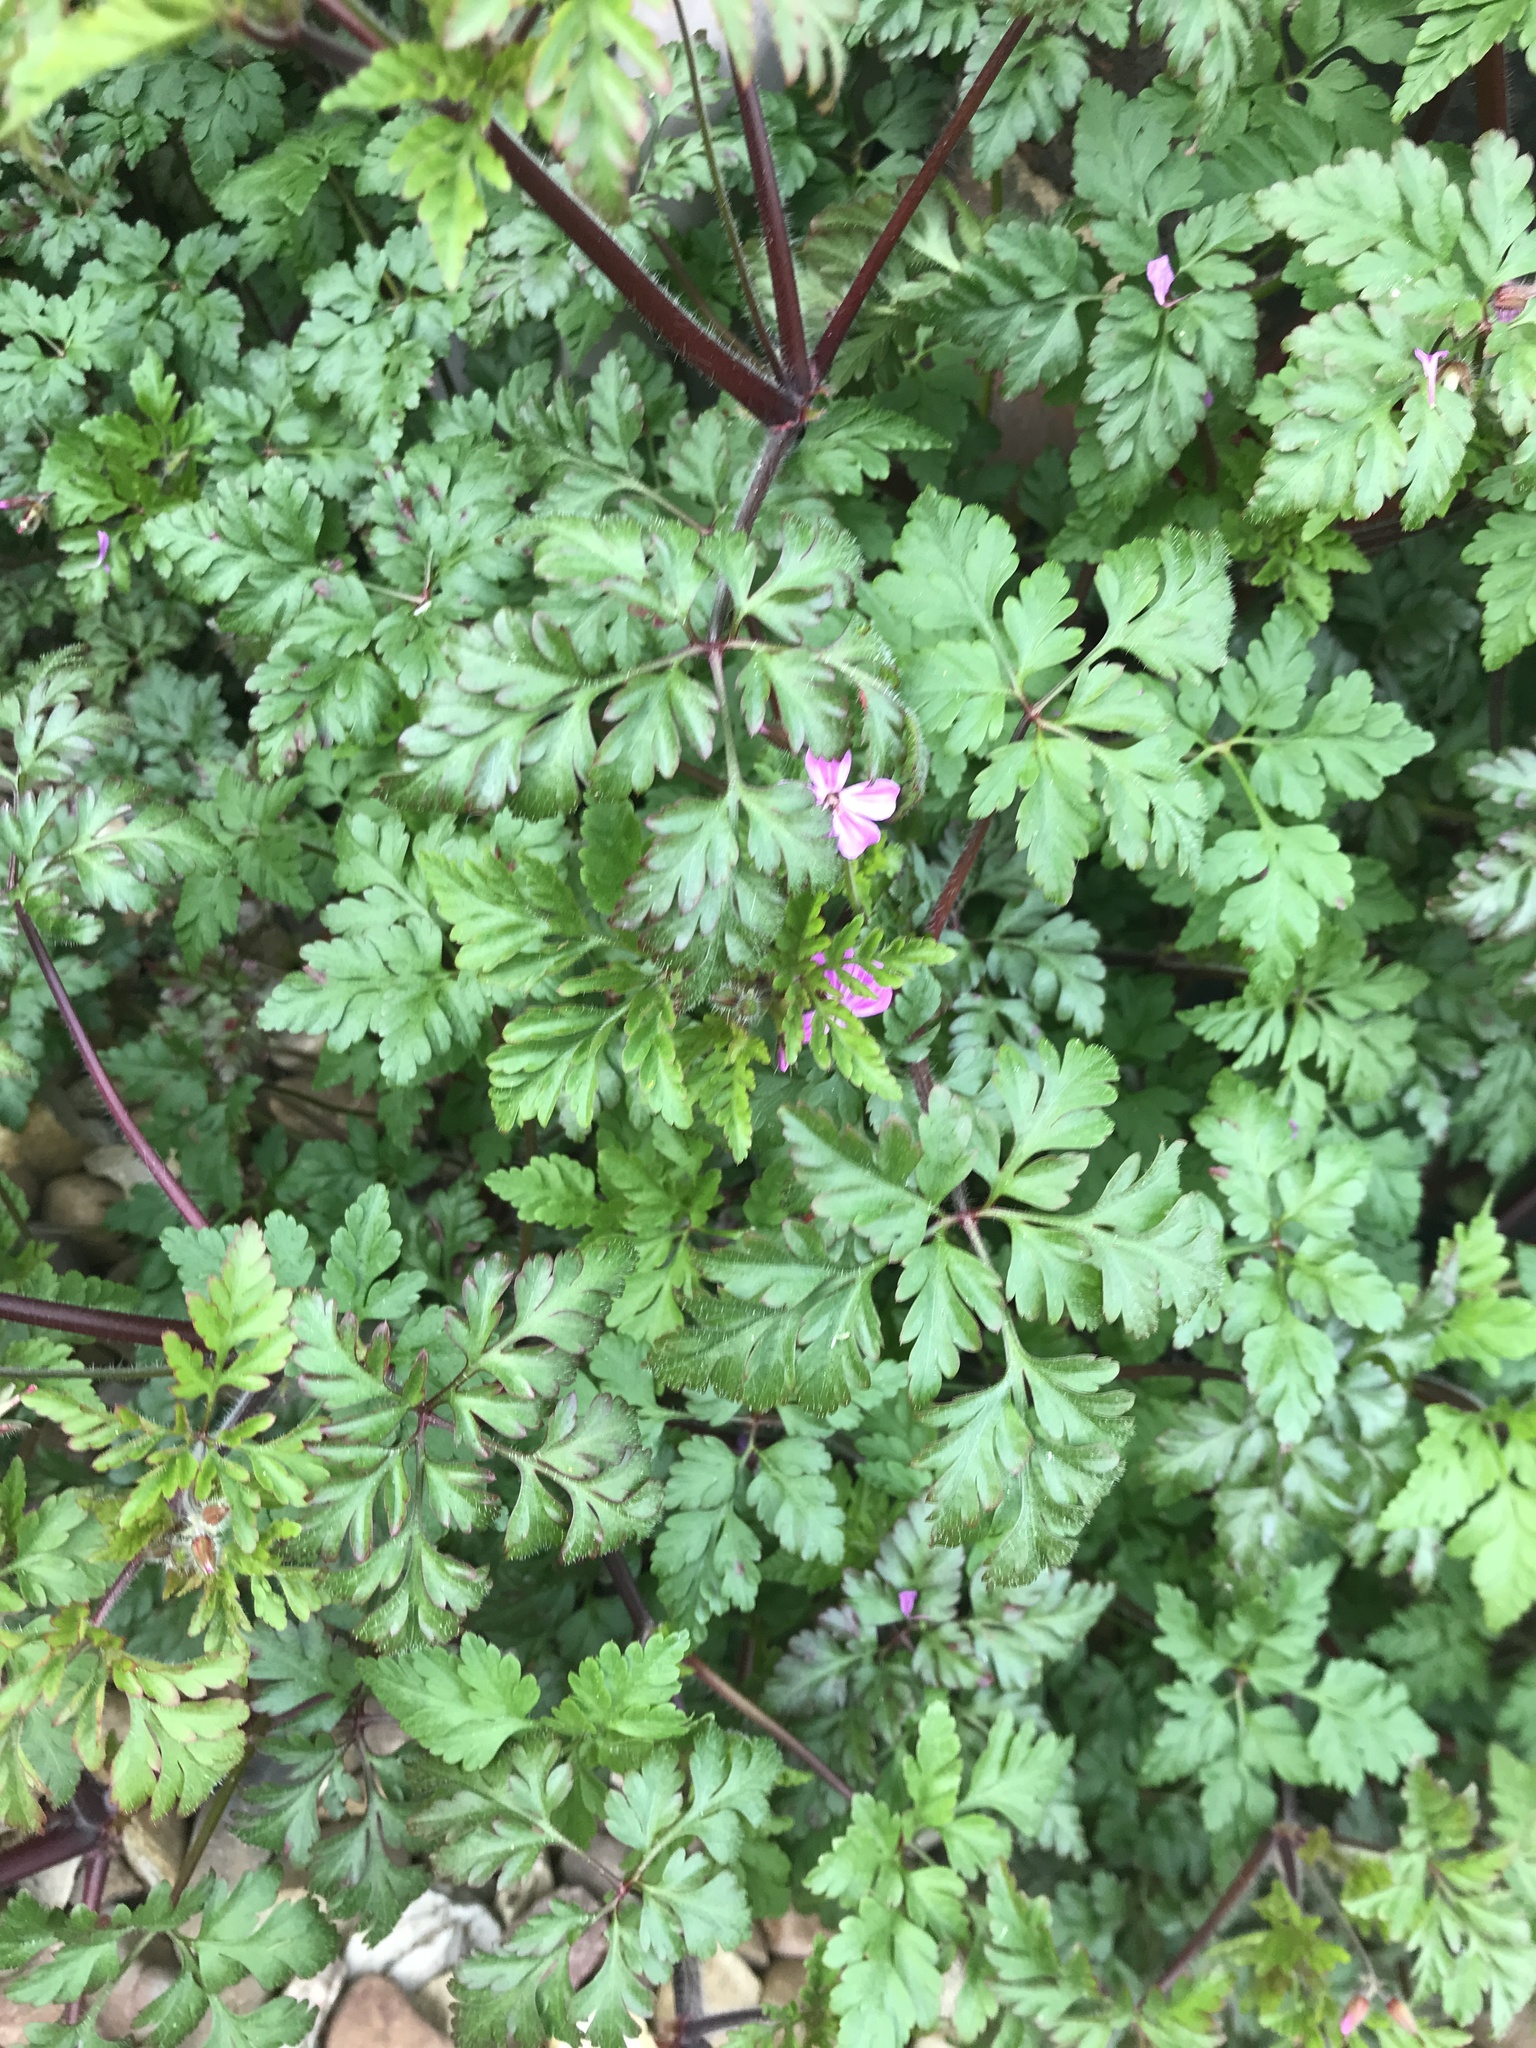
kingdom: Plantae
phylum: Tracheophyta
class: Magnoliopsida
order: Geraniales
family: Geraniaceae
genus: Geranium
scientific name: Geranium robertianum
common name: Herb-robert
